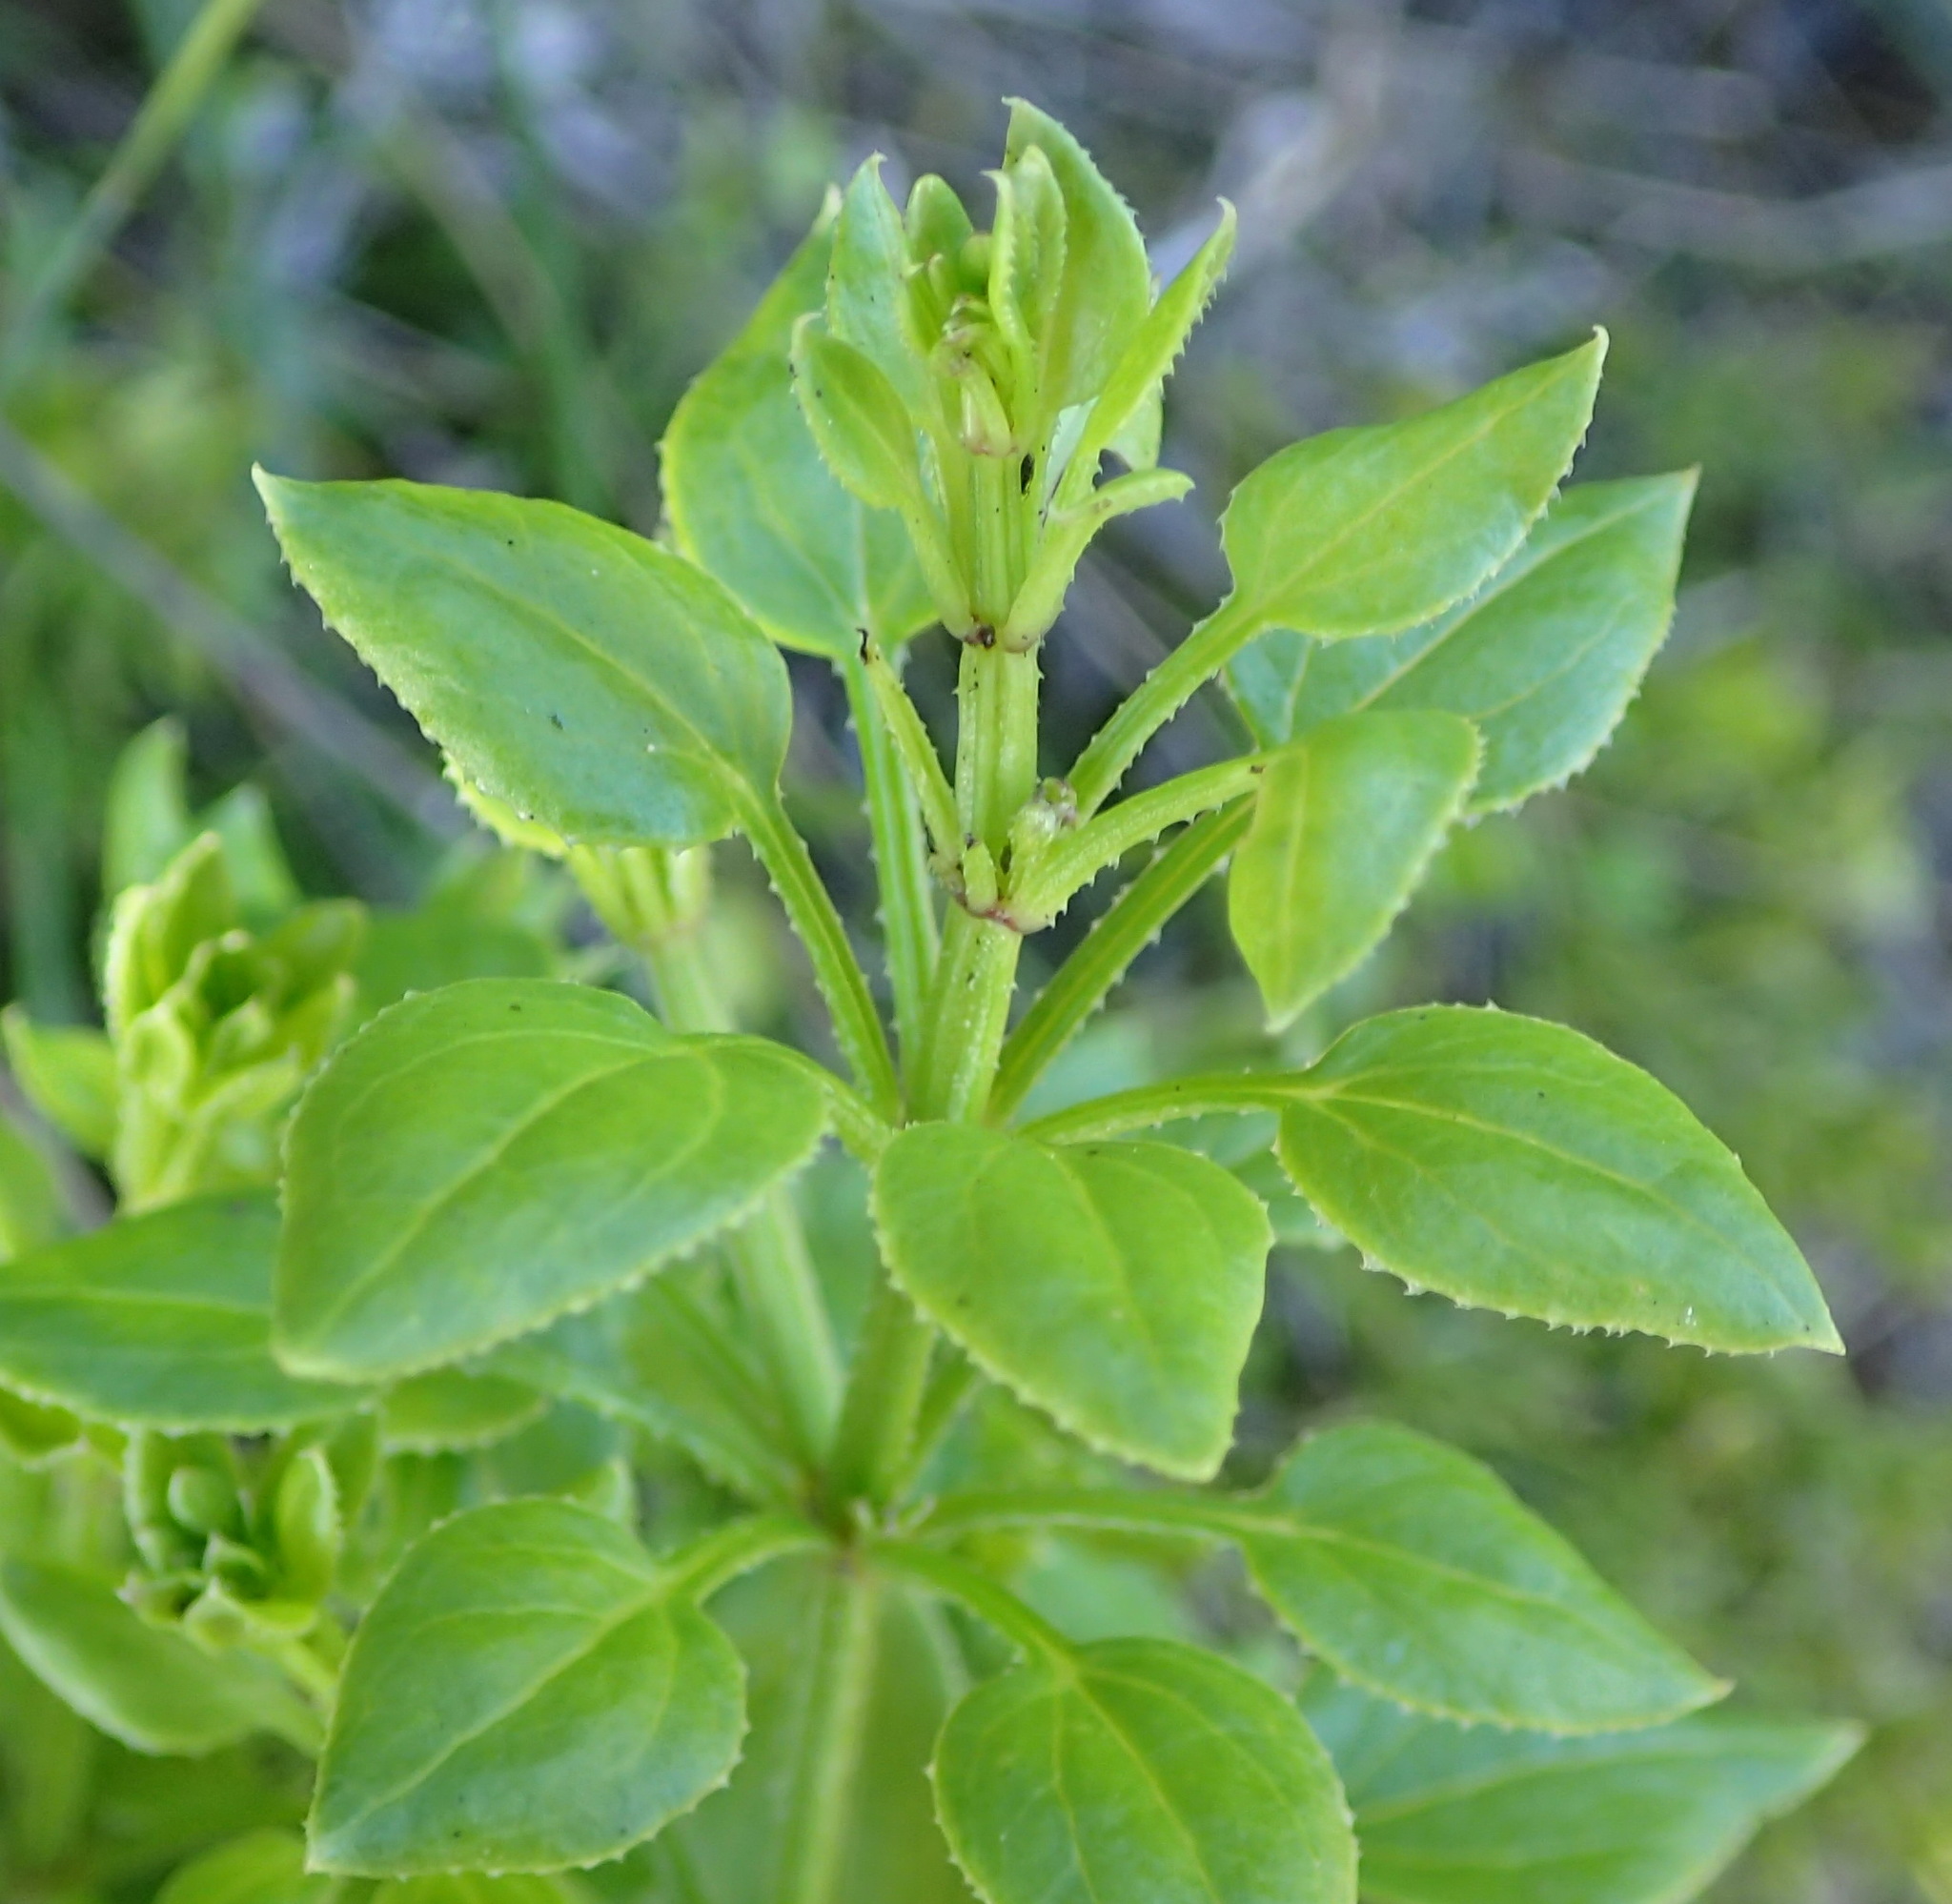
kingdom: Plantae
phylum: Tracheophyta
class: Magnoliopsida
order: Gentianales
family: Rubiaceae
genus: Rubia
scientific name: Rubia petiolaris
